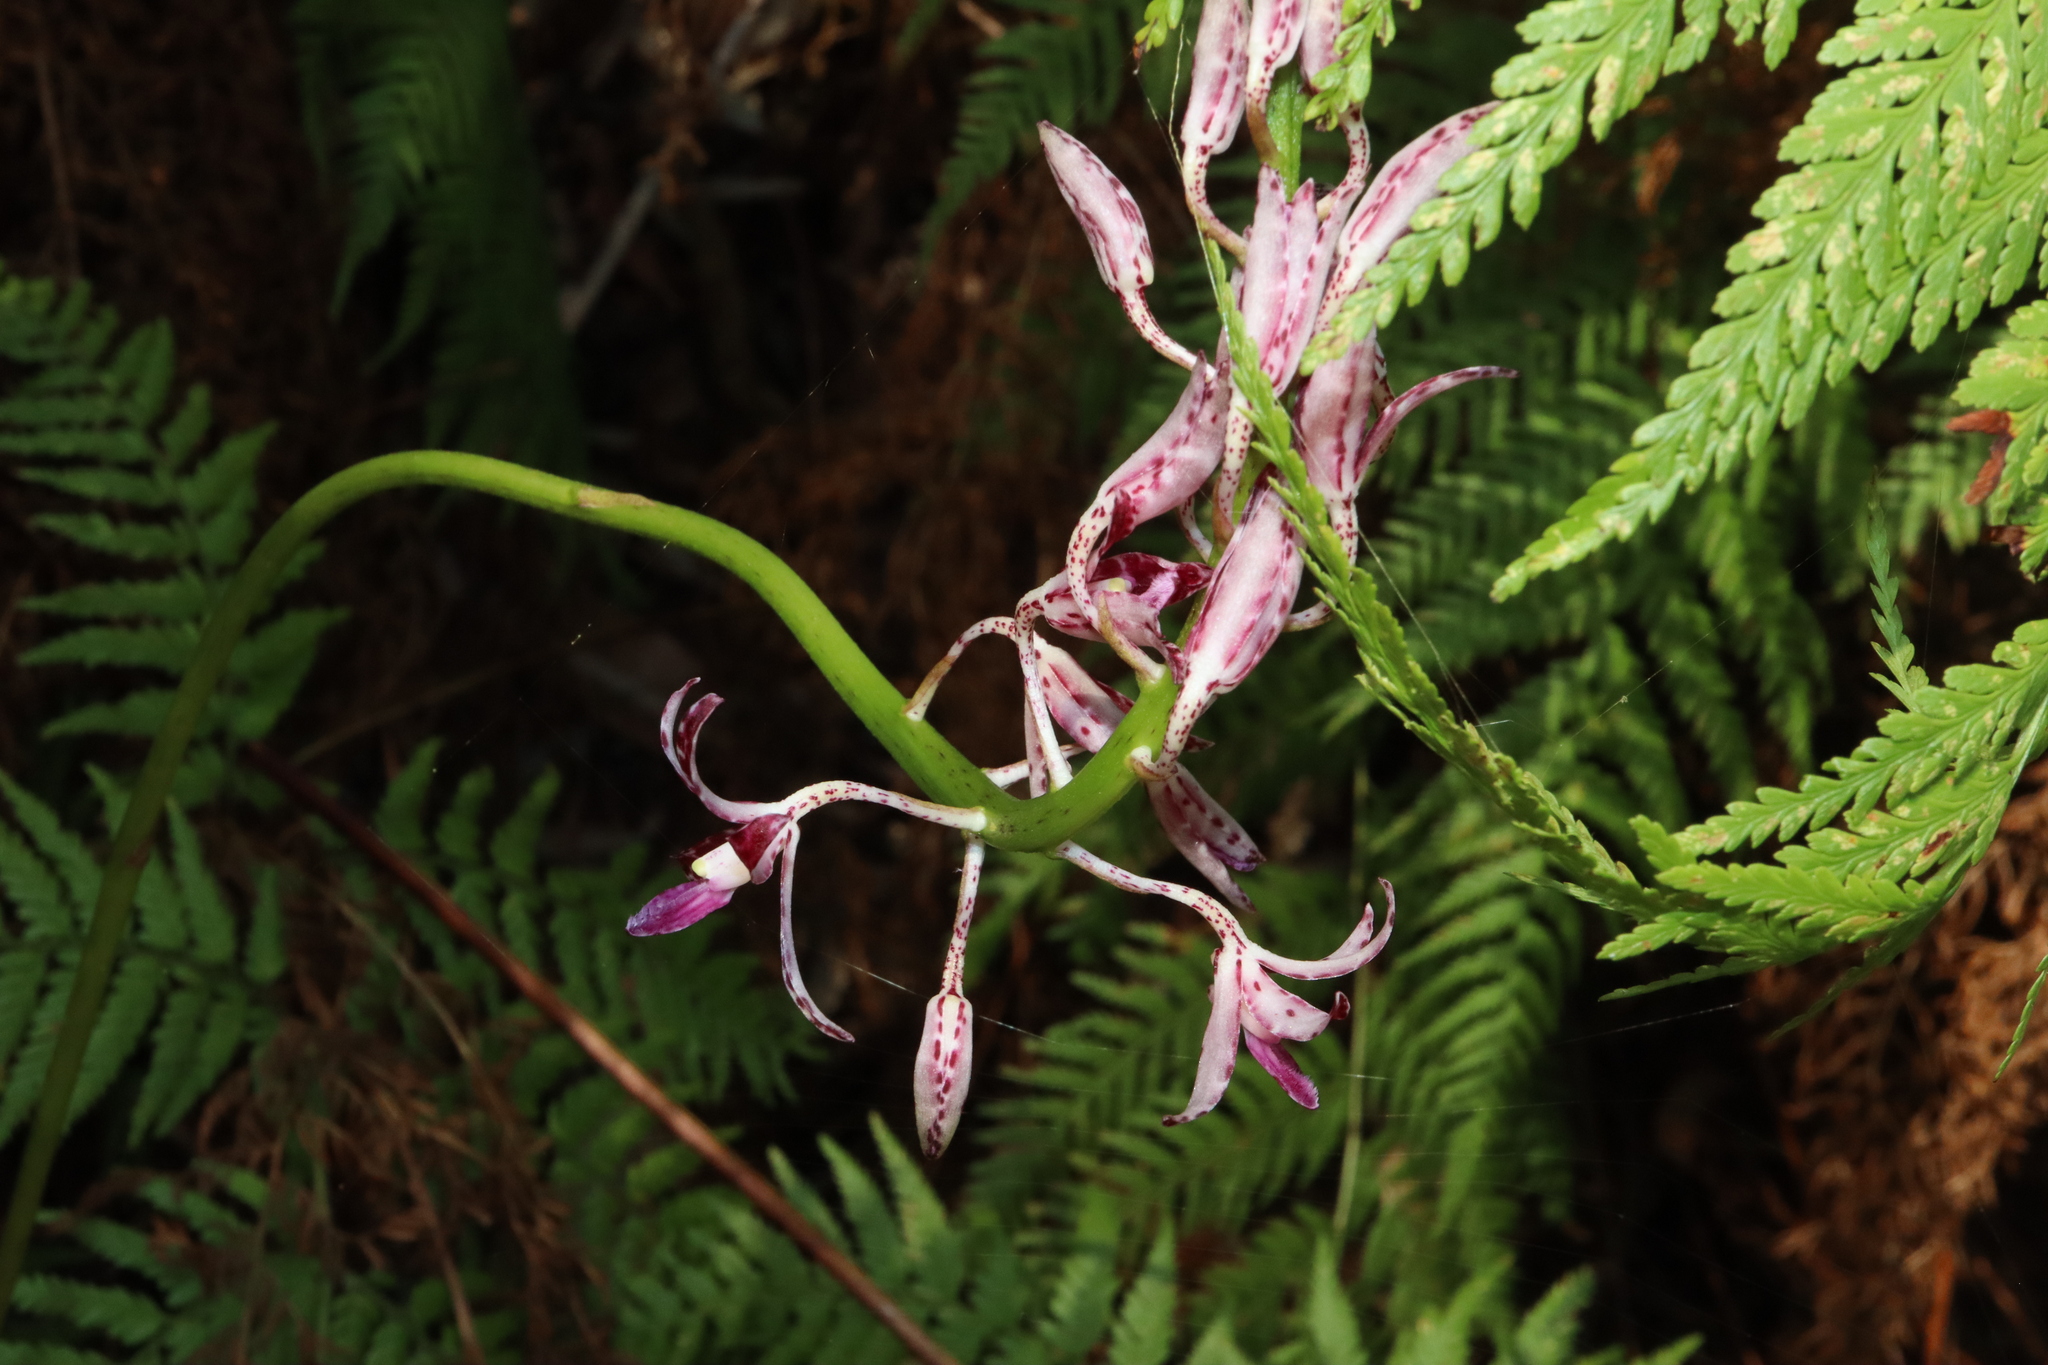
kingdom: Plantae
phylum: Tracheophyta
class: Liliopsida
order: Asparagales
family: Orchidaceae
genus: Dipodium
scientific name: Dipodium variegatum
